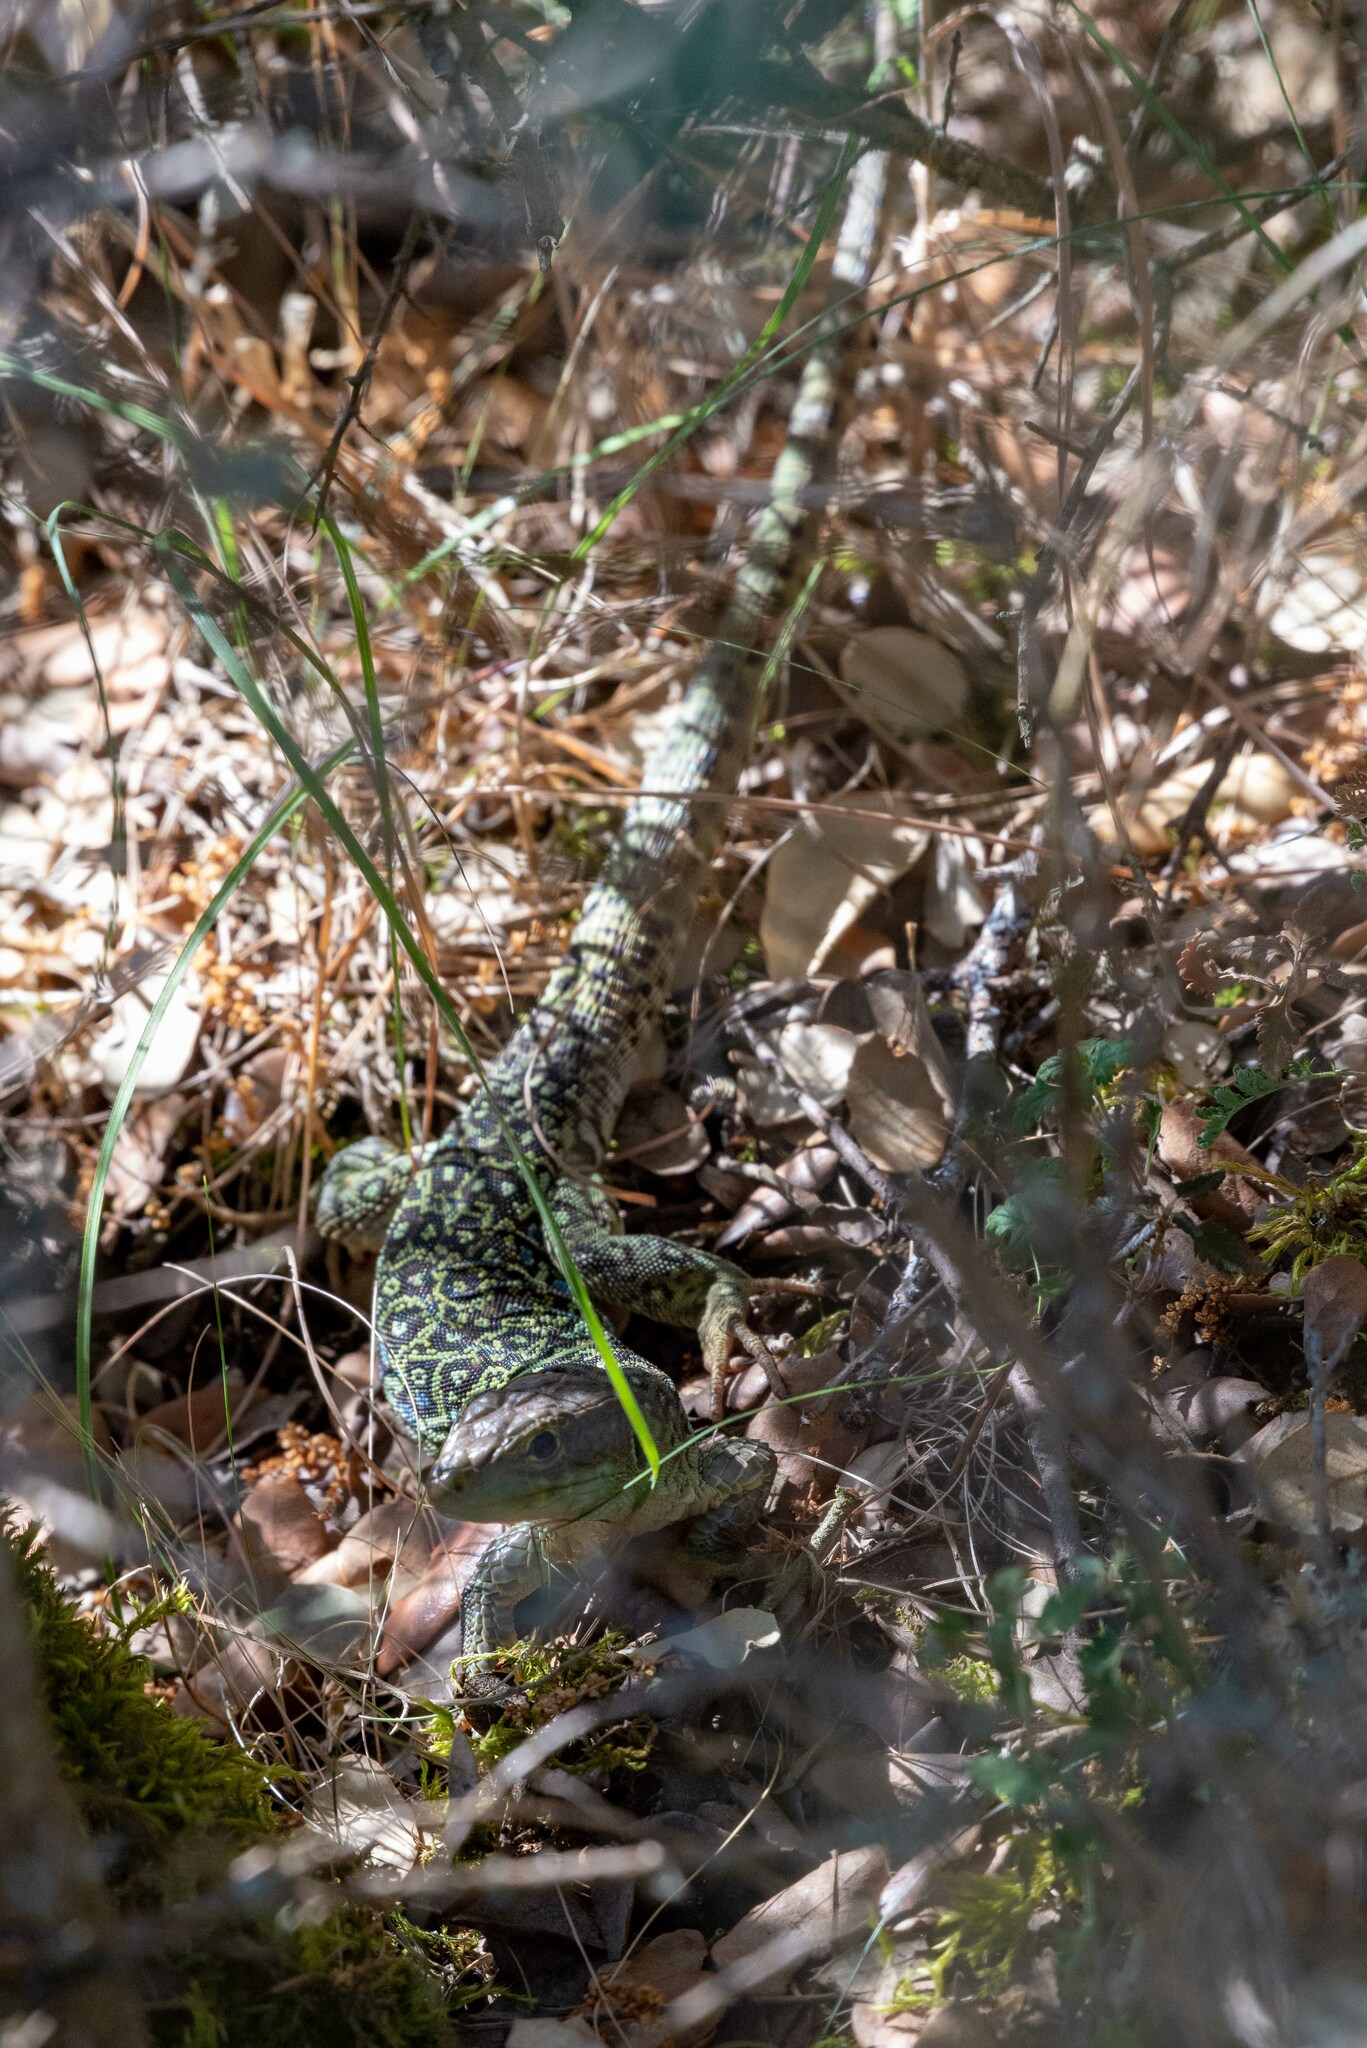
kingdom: Animalia
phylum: Chordata
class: Squamata
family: Lacertidae
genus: Timon
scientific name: Timon lepidus
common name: Ocellated lizard
